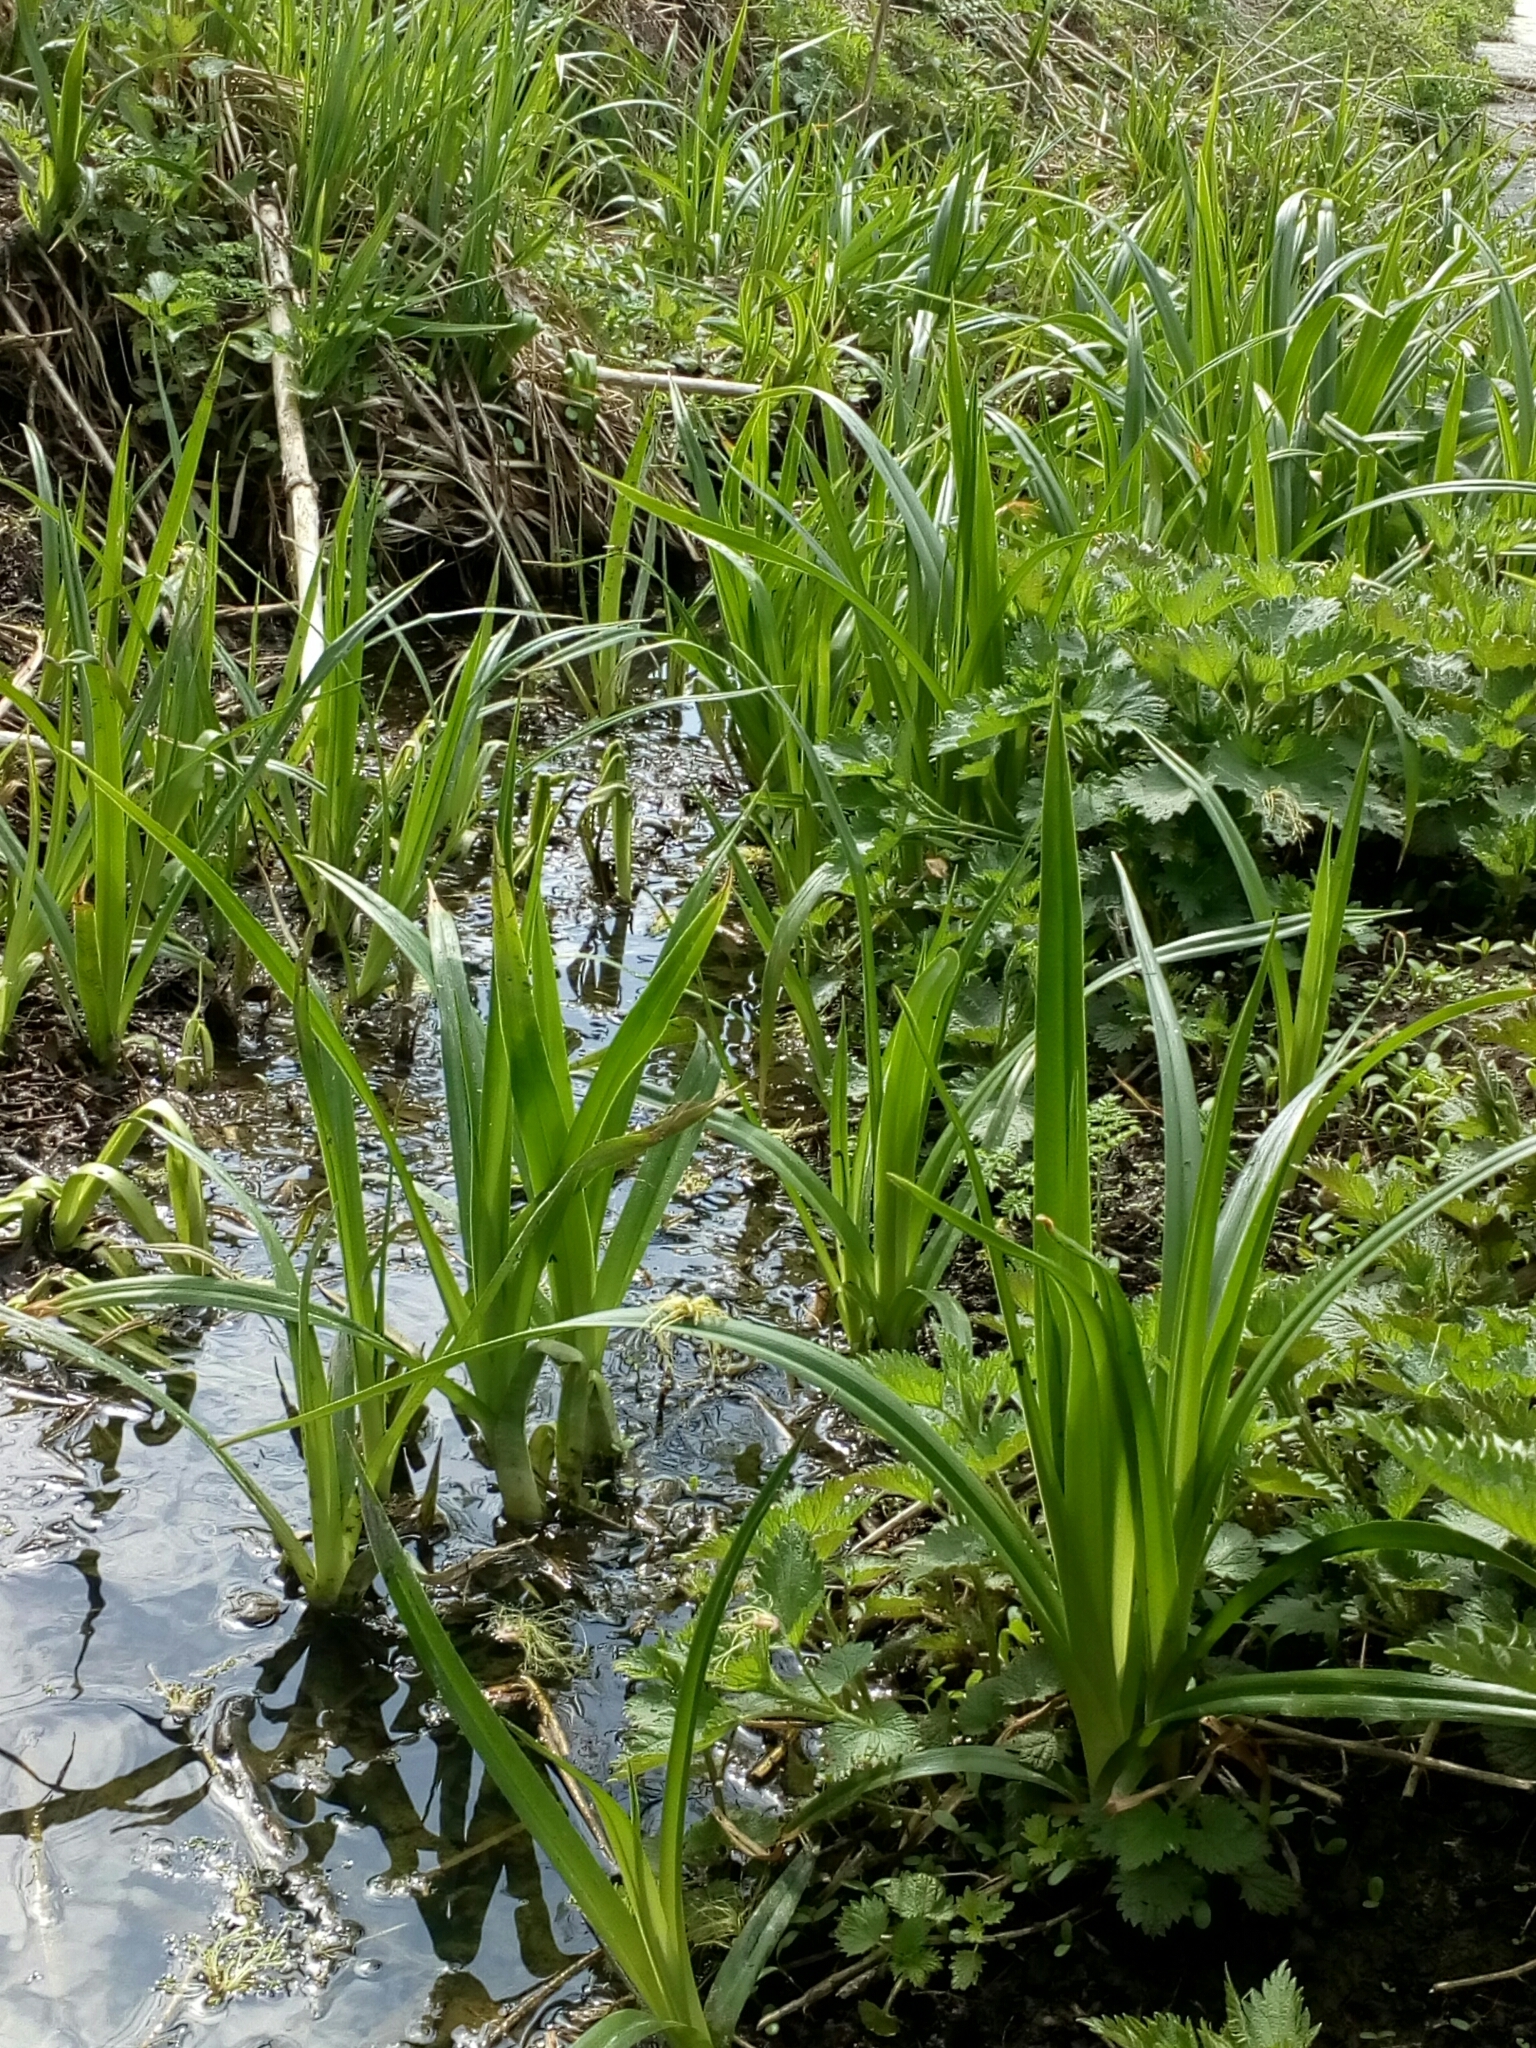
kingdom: Plantae
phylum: Tracheophyta
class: Liliopsida
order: Poales
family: Cyperaceae
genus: Scirpus
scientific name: Scirpus sylvaticus
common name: Wood club-rush
